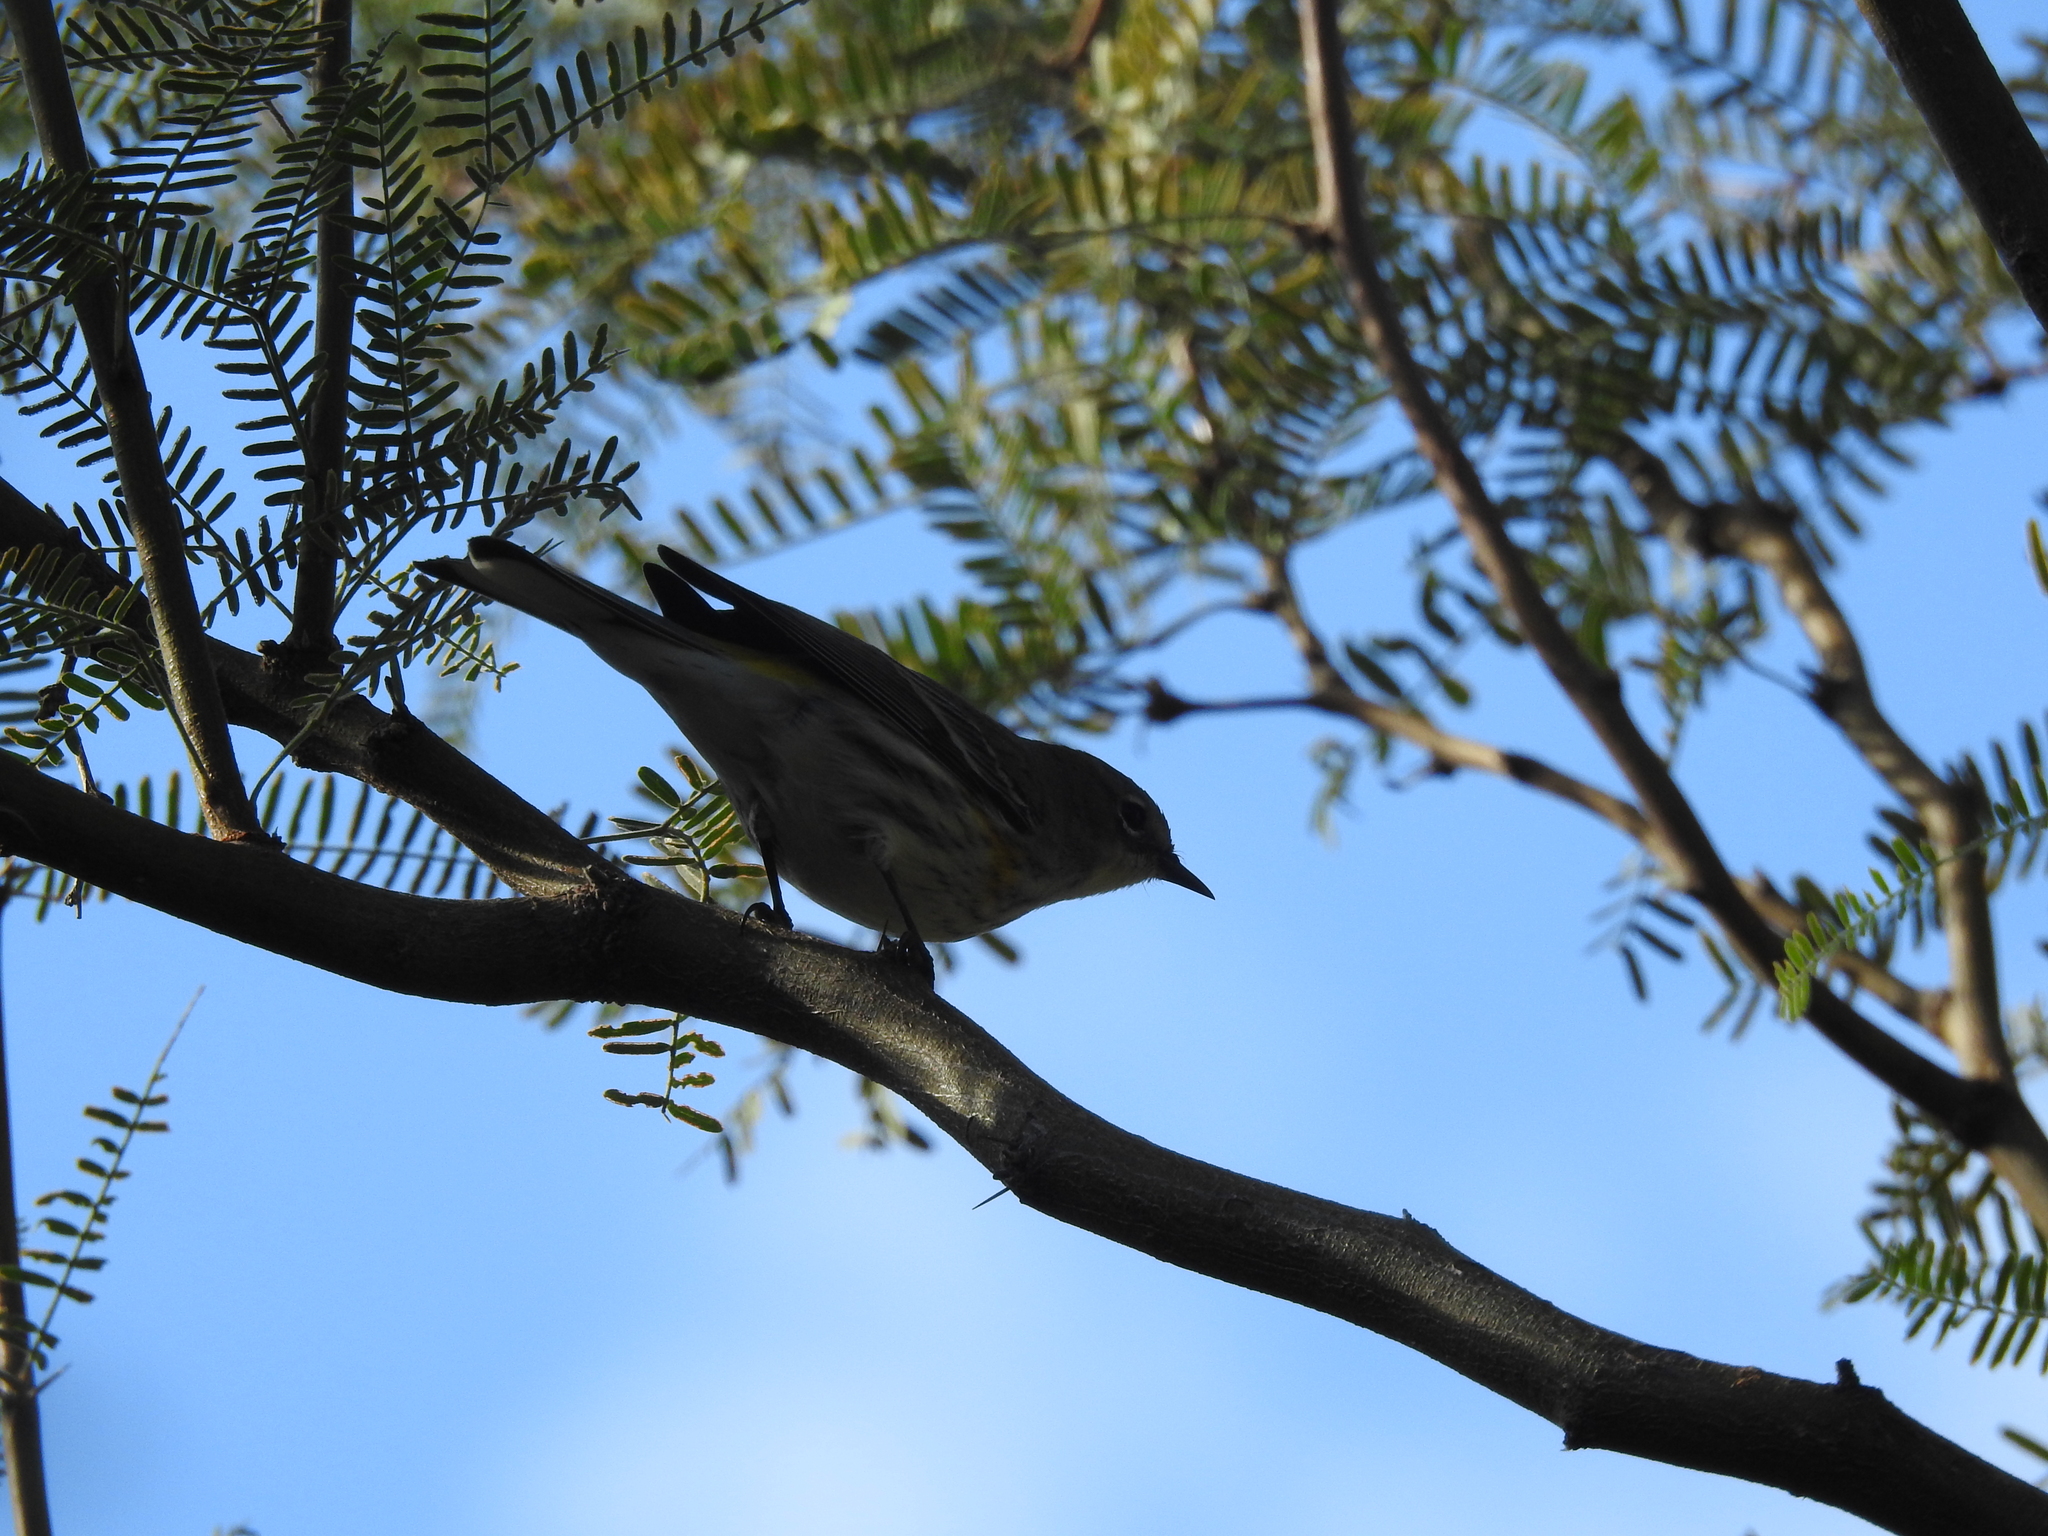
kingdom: Animalia
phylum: Chordata
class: Aves
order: Passeriformes
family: Parulidae
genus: Setophaga
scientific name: Setophaga coronata
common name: Myrtle warbler
